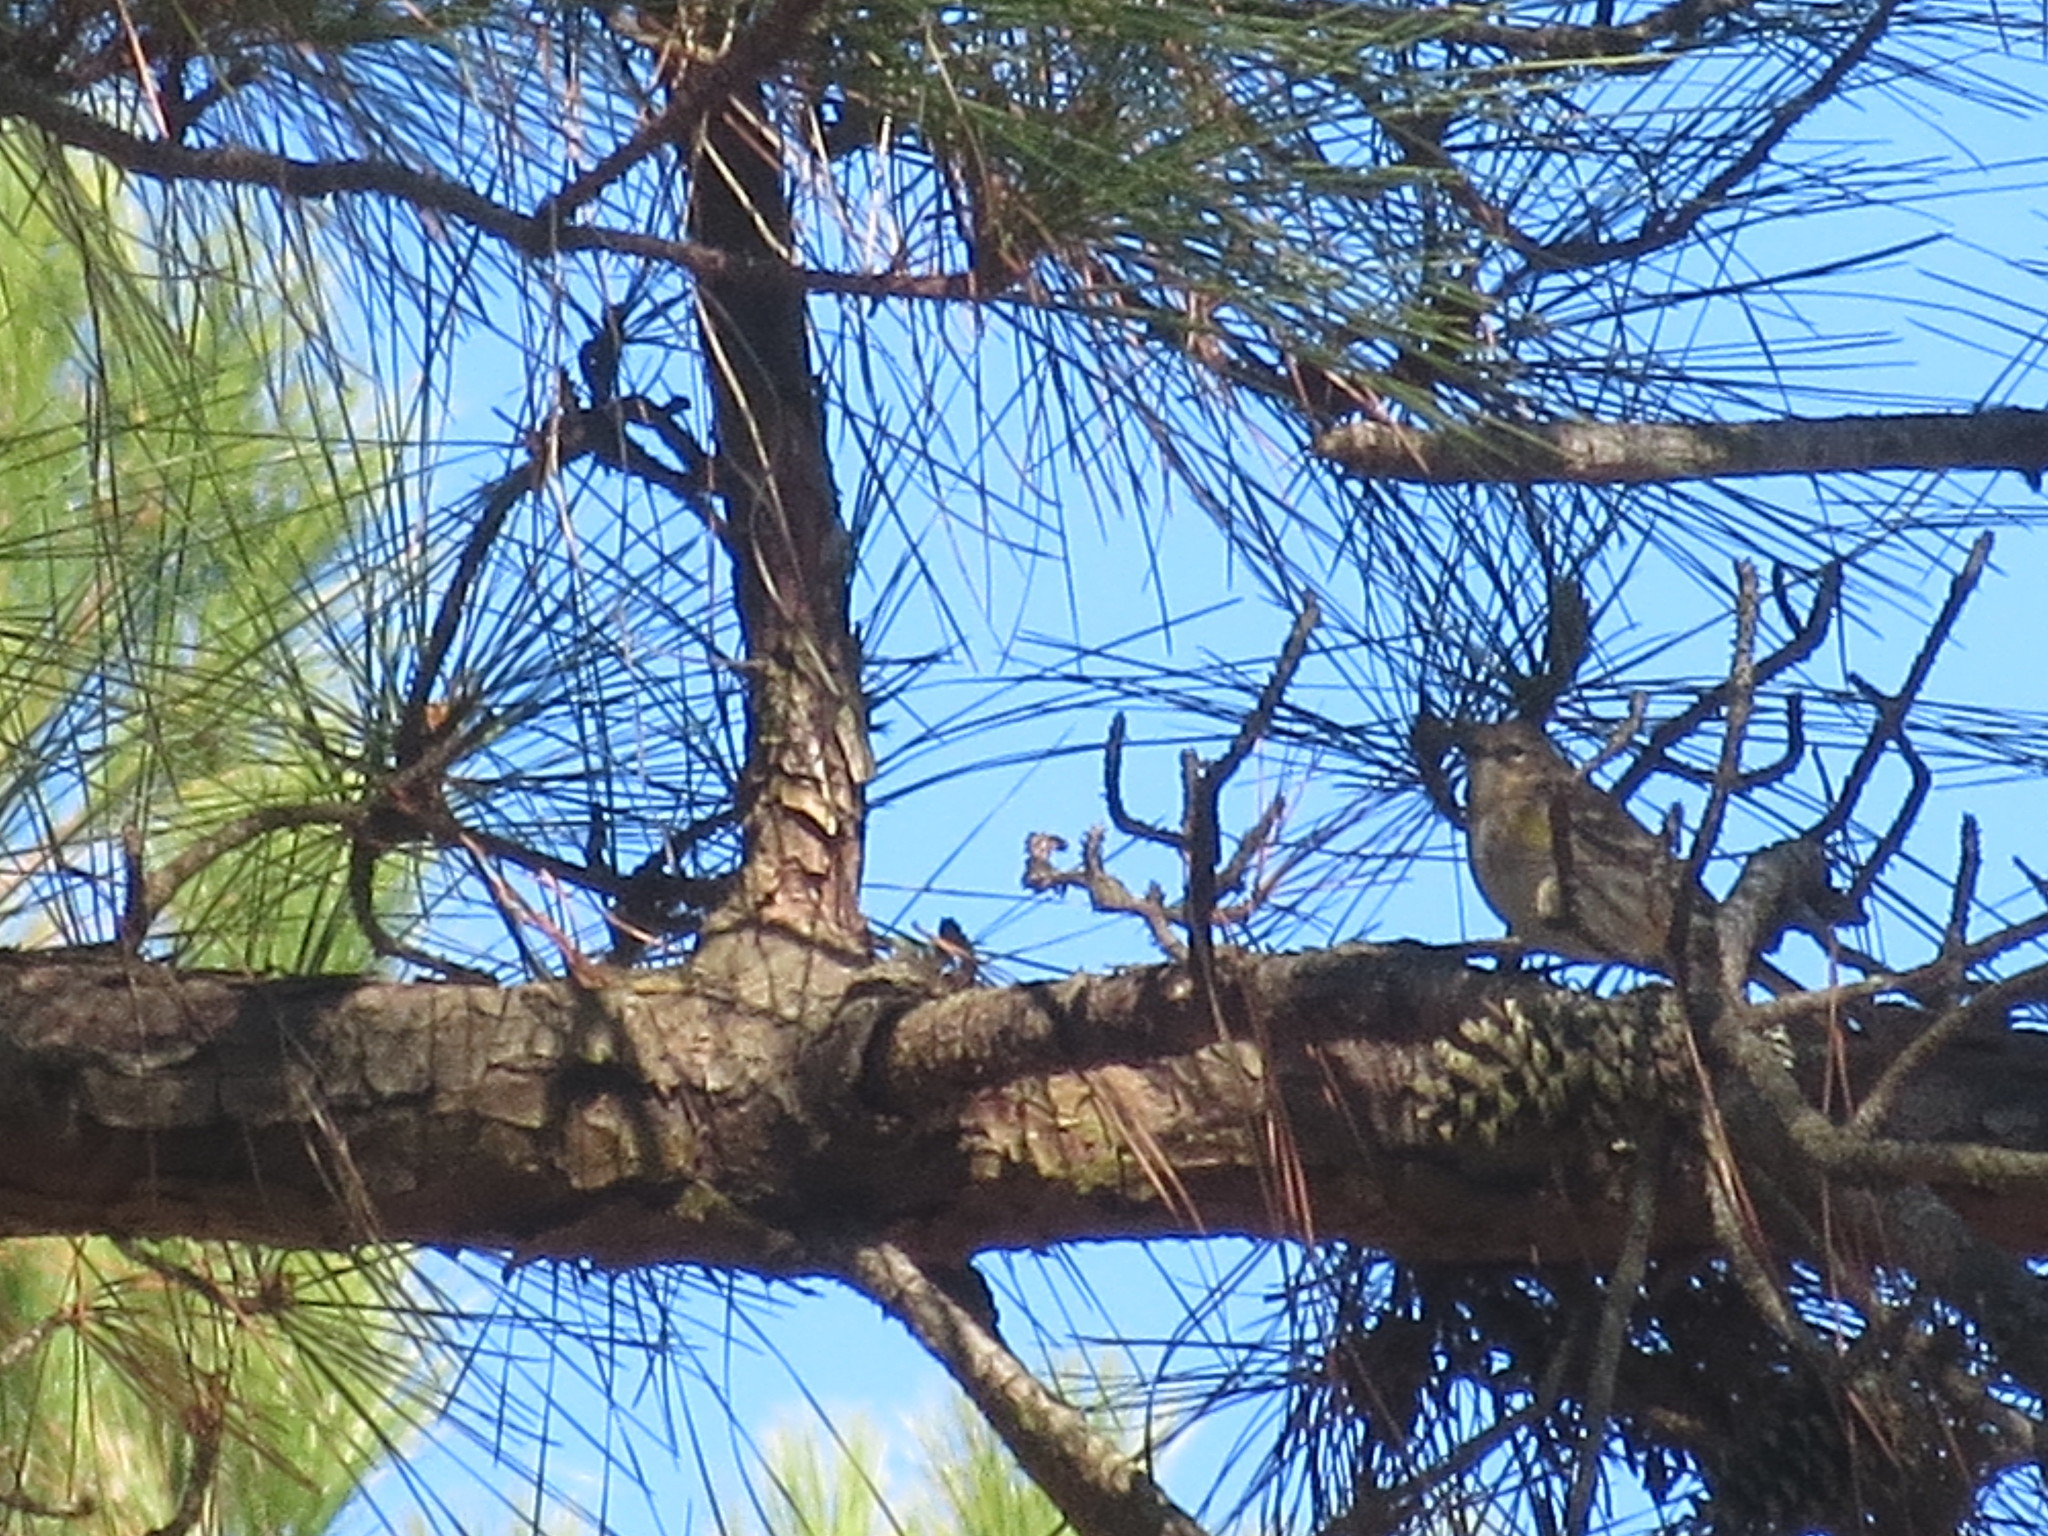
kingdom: Animalia
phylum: Chordata
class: Aves
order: Passeriformes
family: Parulidae
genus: Setophaga
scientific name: Setophaga coronata
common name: Myrtle warbler
